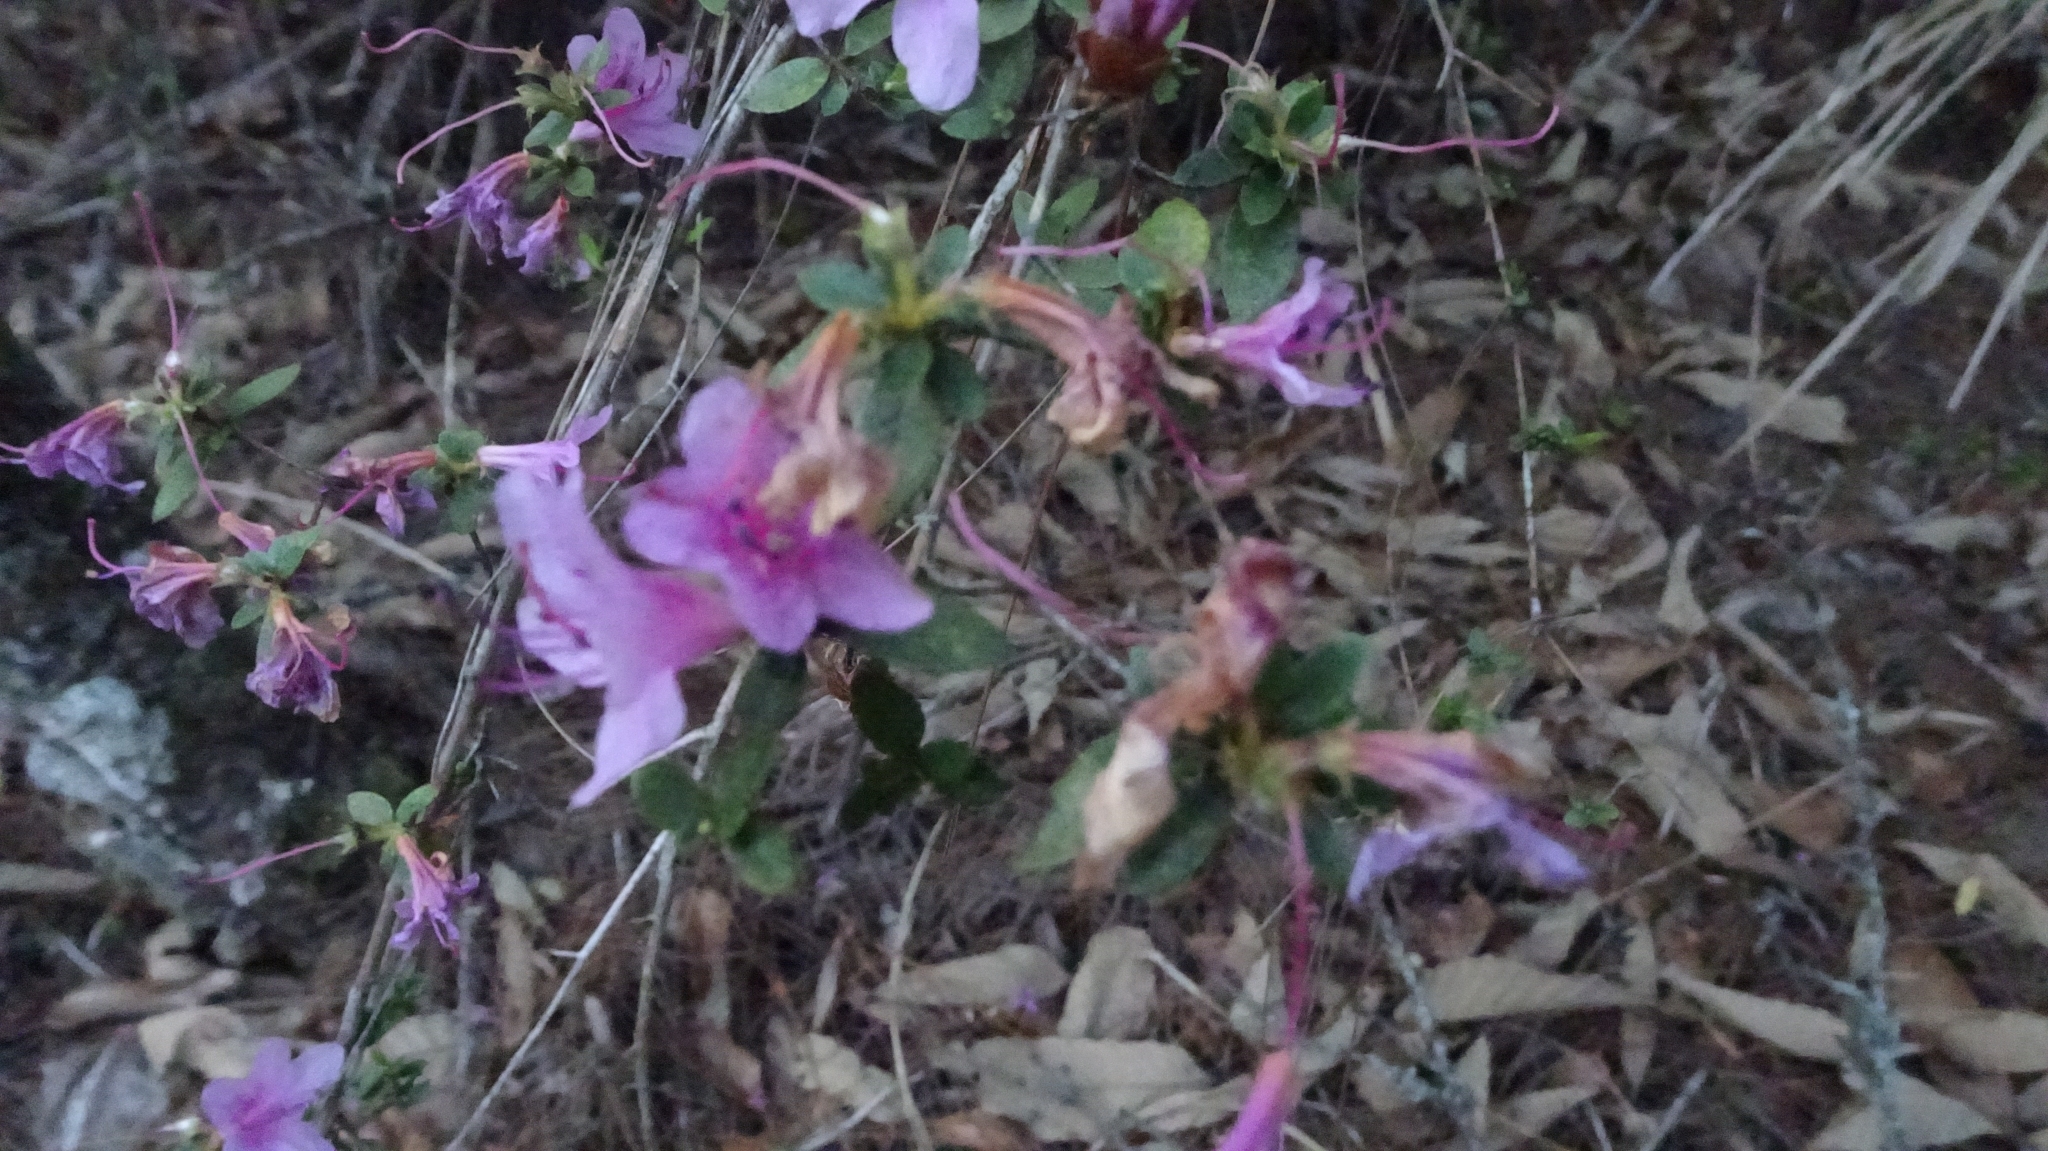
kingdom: Plantae
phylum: Tracheophyta
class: Magnoliopsida
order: Ericales
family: Ericaceae
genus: Rhododendron
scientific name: Rhododendron noriakianum
